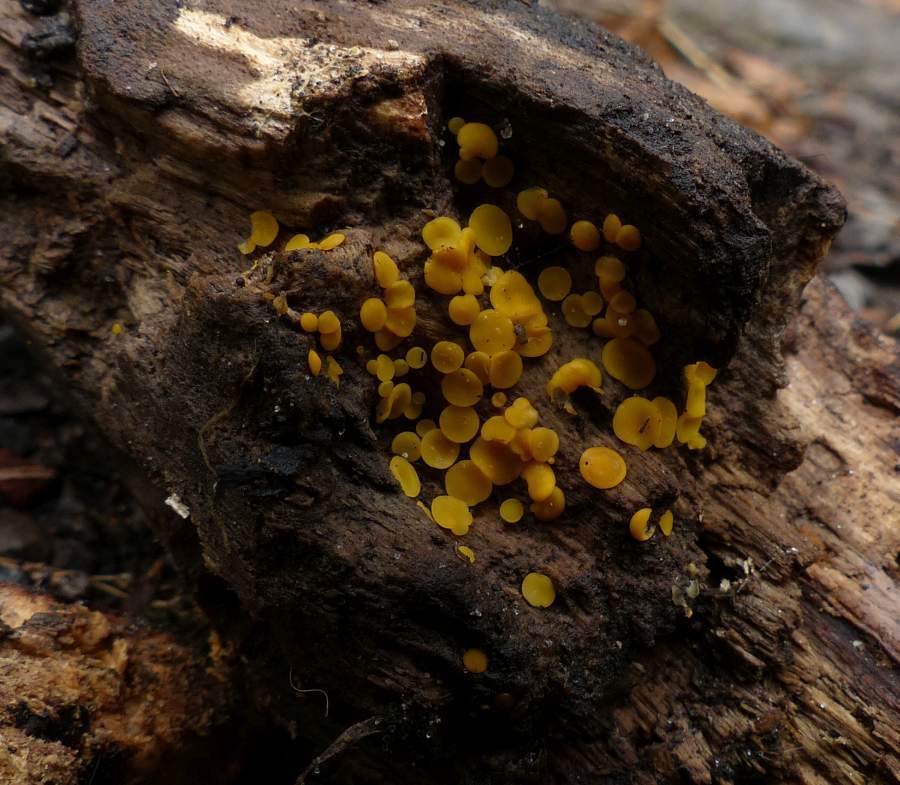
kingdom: Fungi
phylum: Ascomycota
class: Leotiomycetes
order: Helotiales
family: Pezizellaceae
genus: Calycina
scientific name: Calycina citrina
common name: Yellow fairy cups
